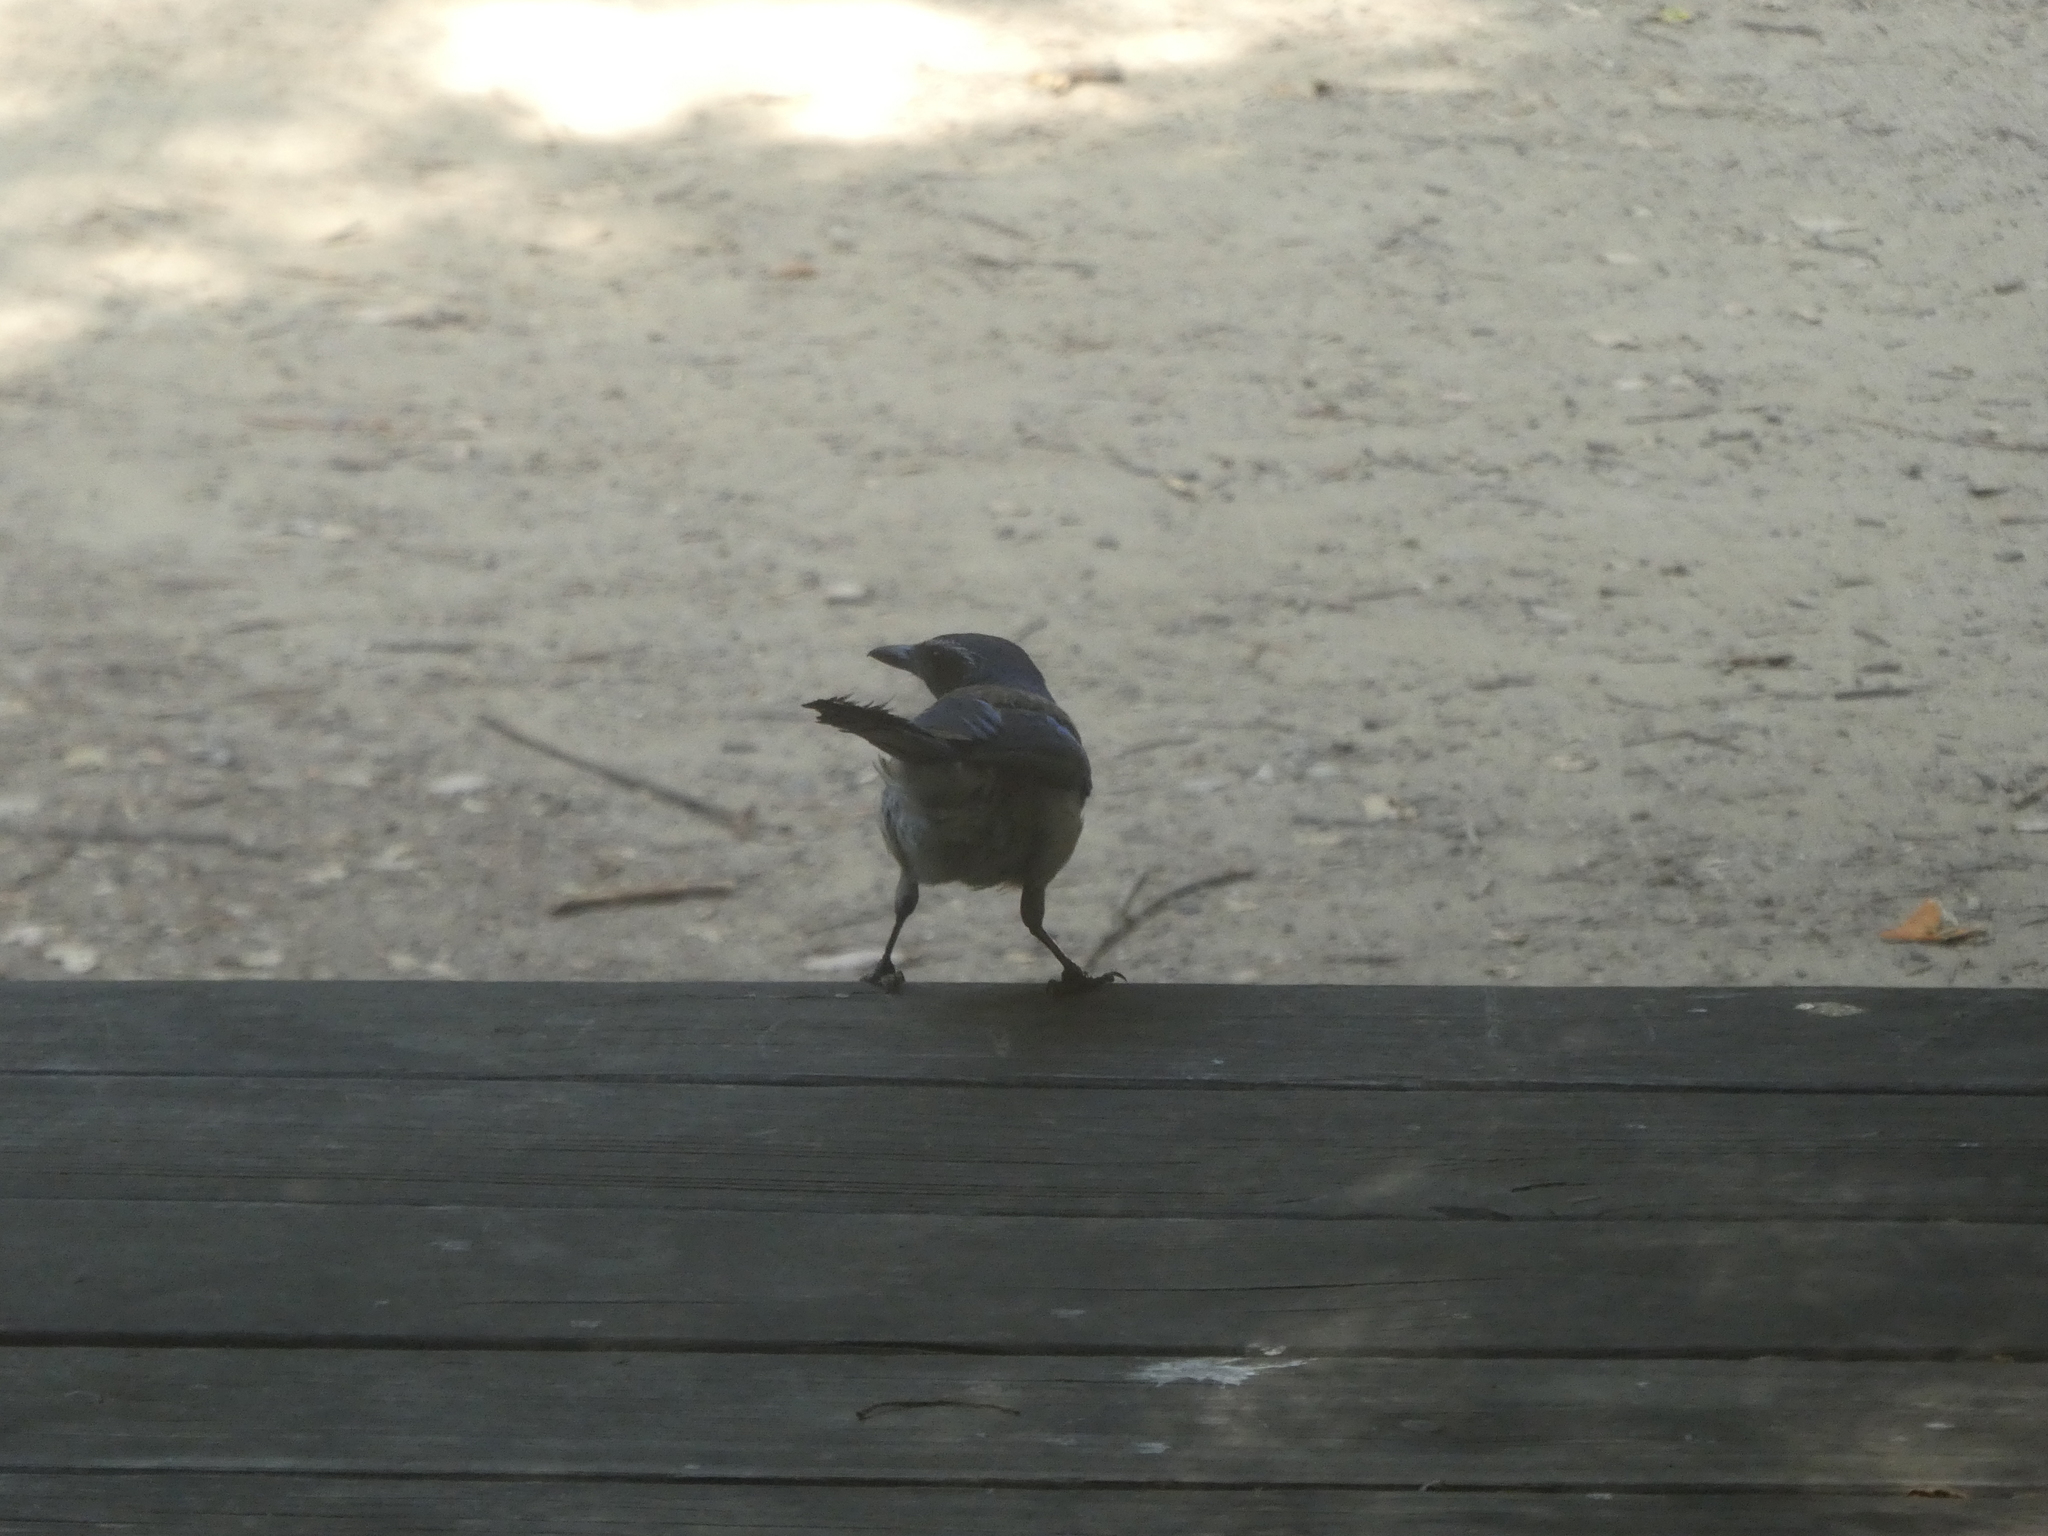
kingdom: Animalia
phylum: Chordata
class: Aves
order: Passeriformes
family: Corvidae
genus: Aphelocoma
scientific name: Aphelocoma californica
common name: California scrub-jay
